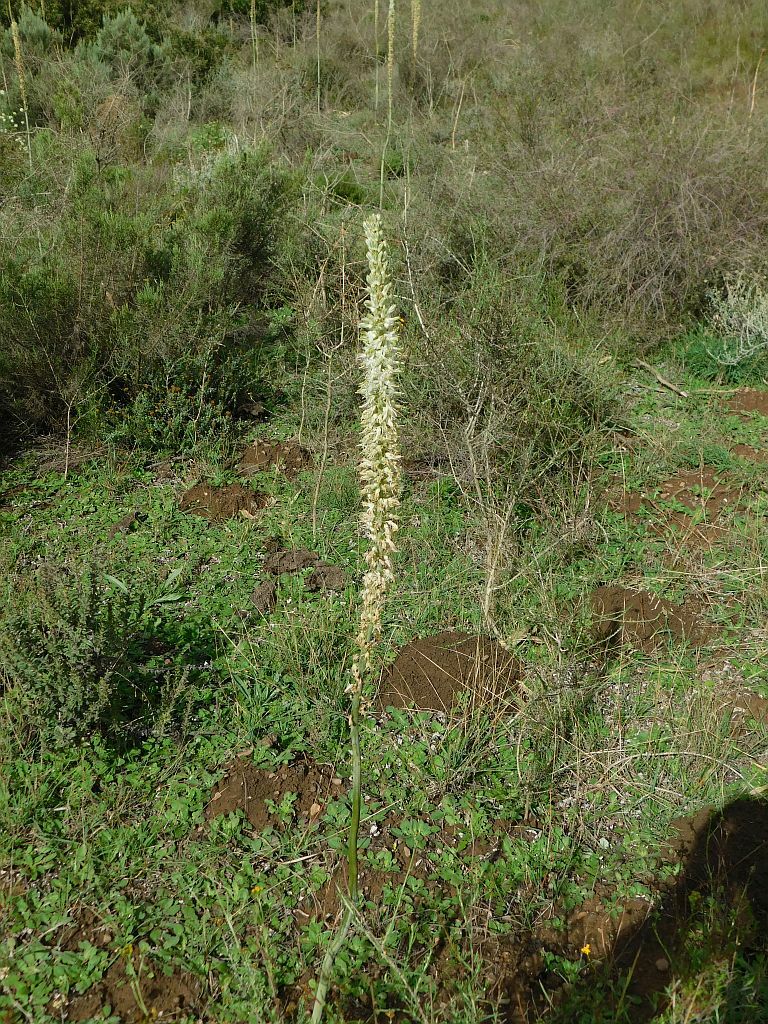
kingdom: Plantae
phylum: Tracheophyta
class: Liliopsida
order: Asparagales
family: Asparagaceae
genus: Drimia
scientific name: Drimia capensis
